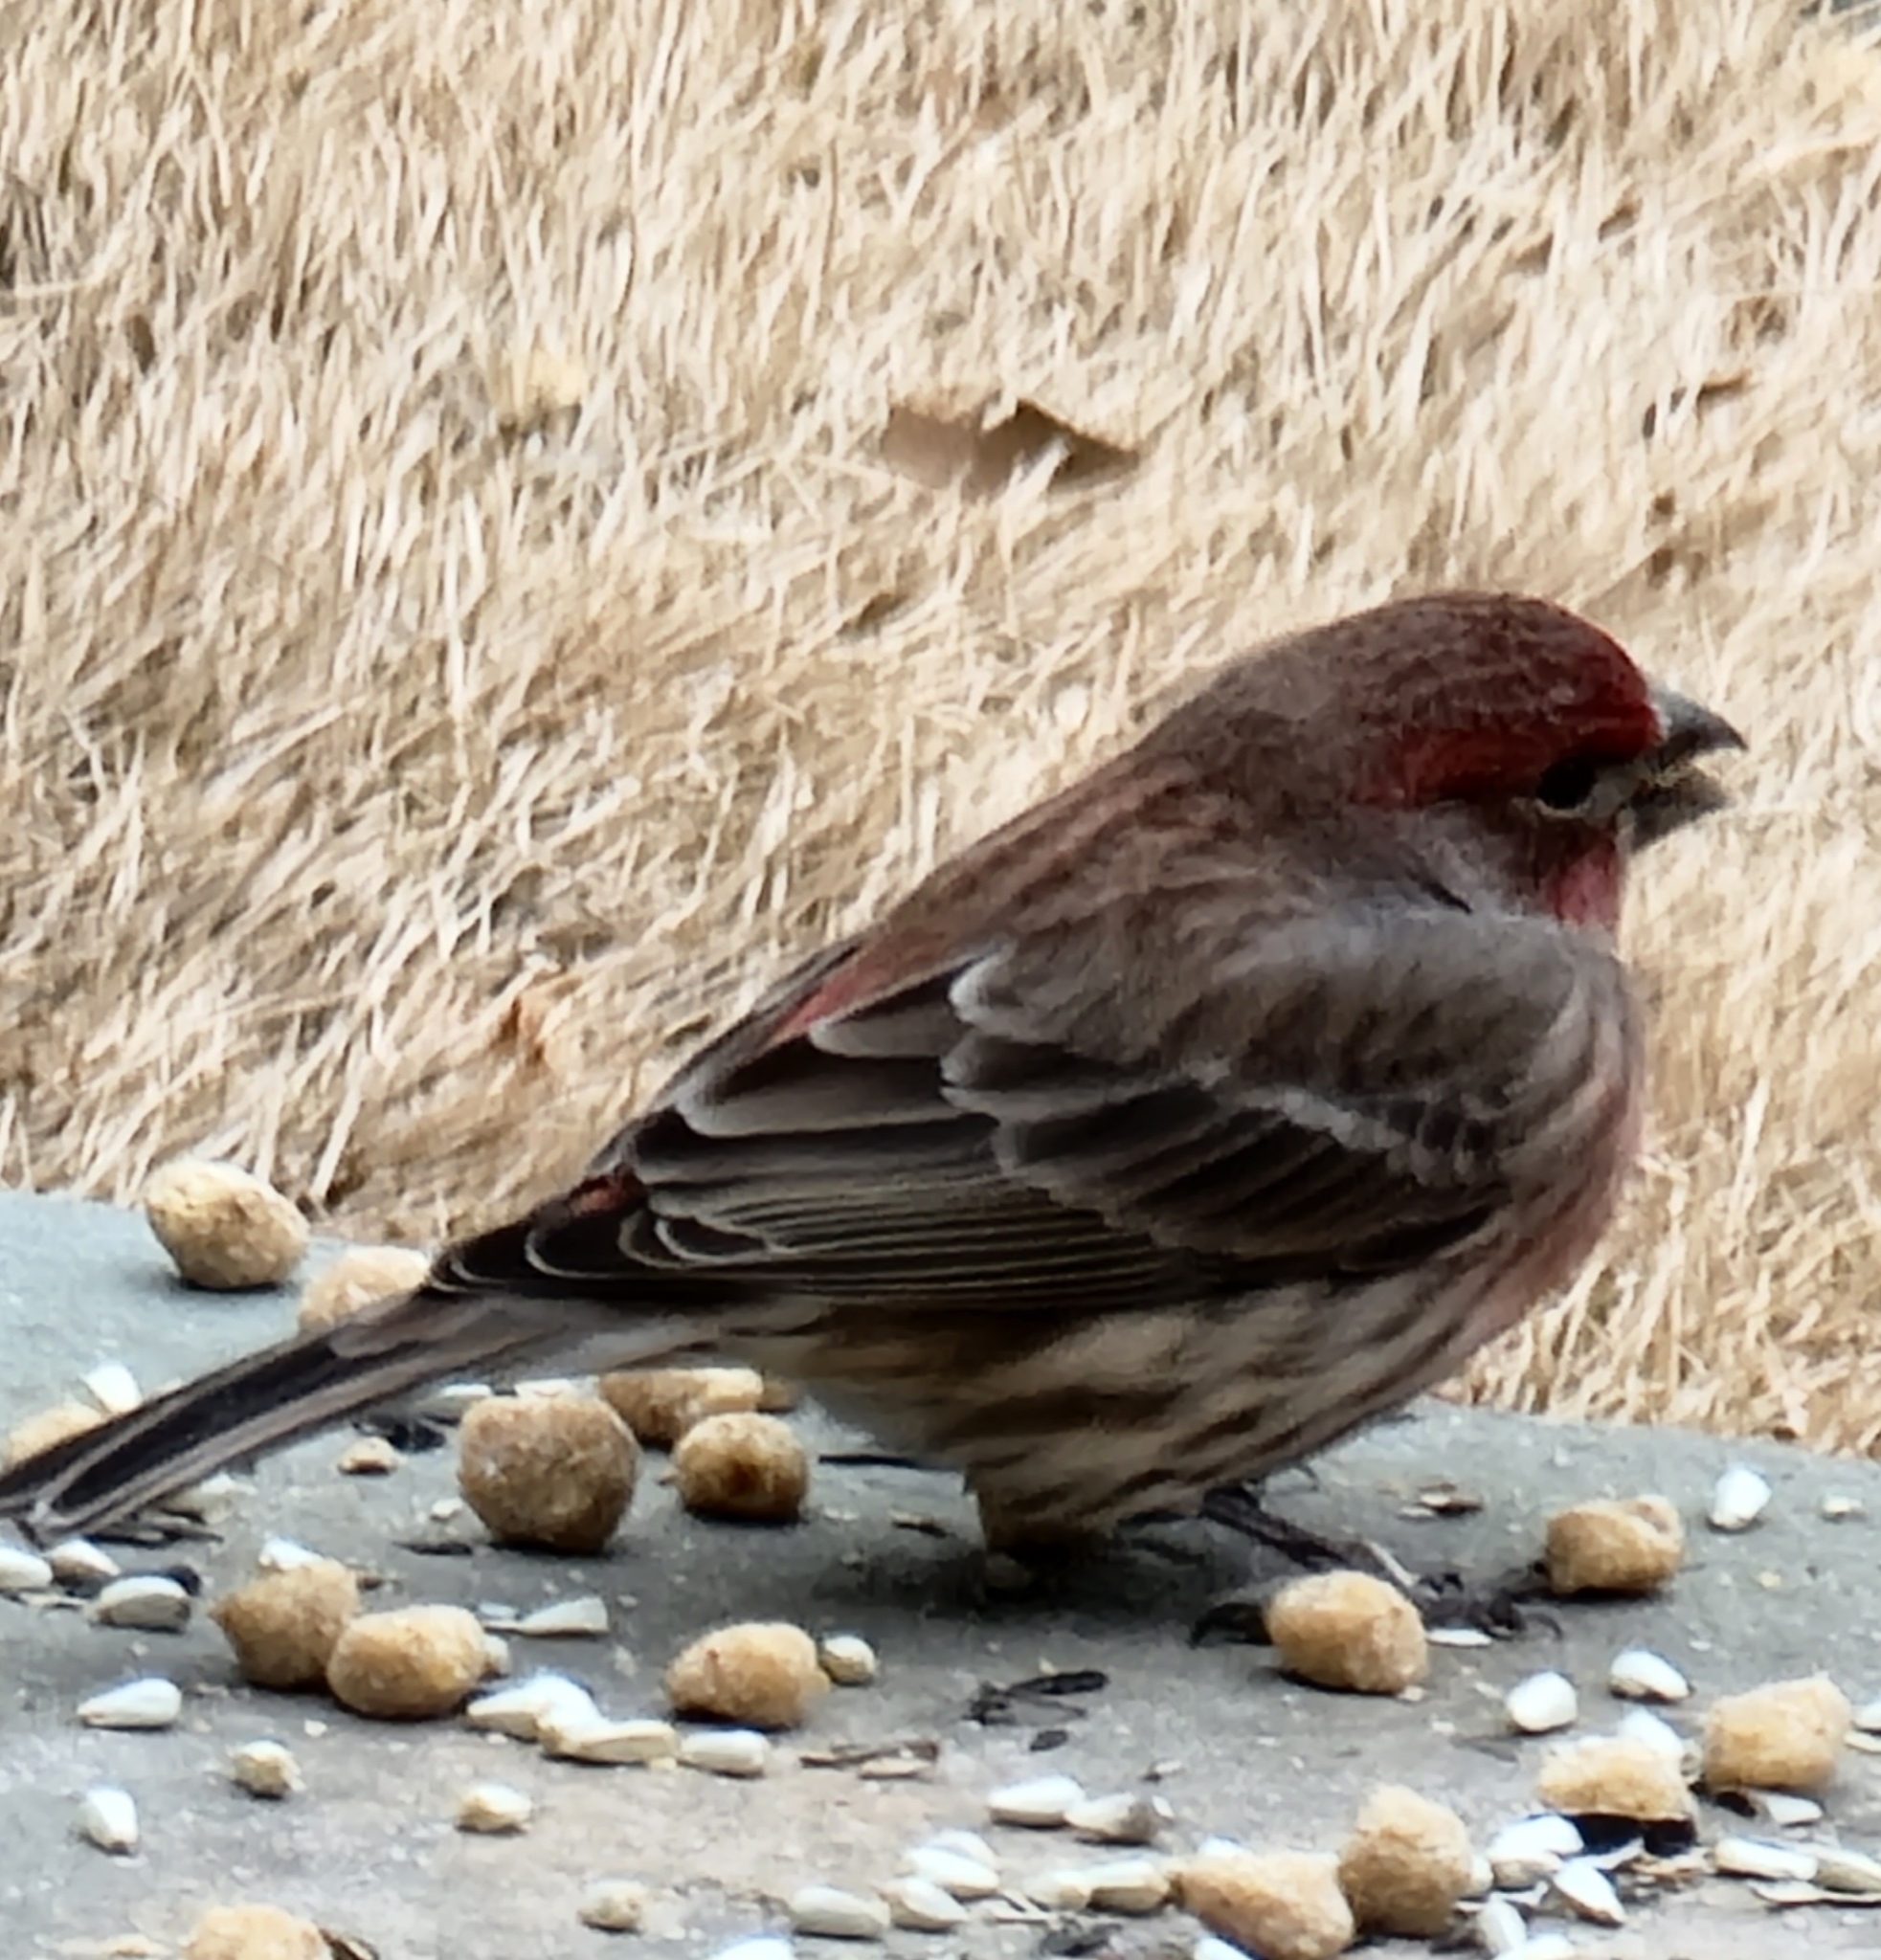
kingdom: Animalia
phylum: Chordata
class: Aves
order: Passeriformes
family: Fringillidae
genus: Haemorhous
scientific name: Haemorhous mexicanus
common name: House finch
